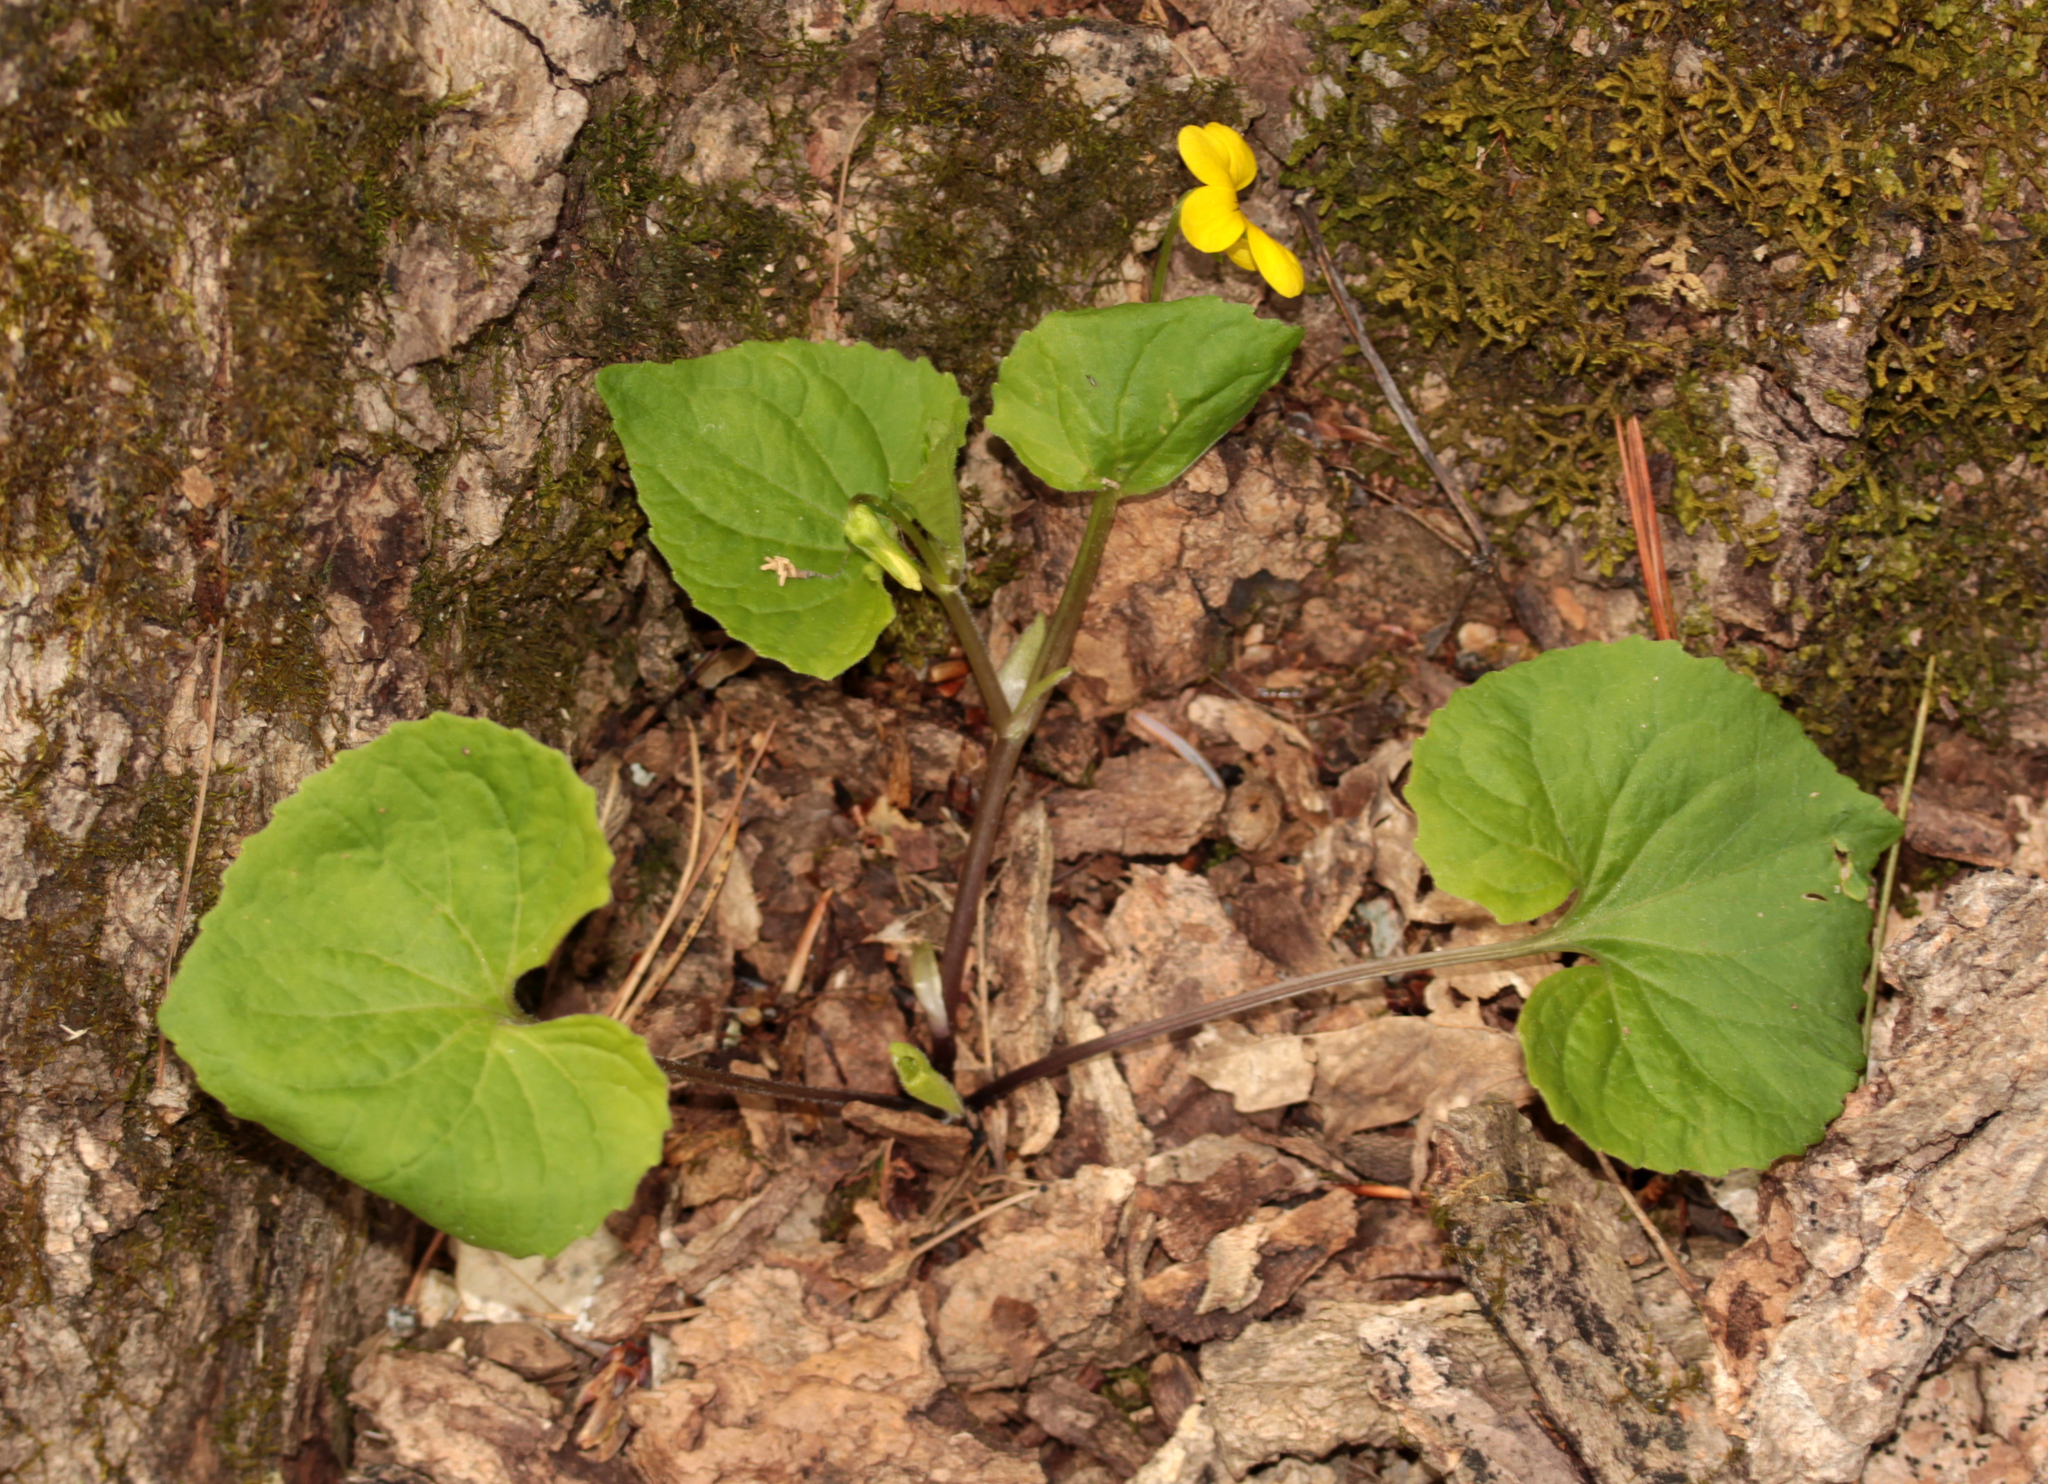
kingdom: Plantae
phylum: Tracheophyta
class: Magnoliopsida
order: Malpighiales
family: Violaceae
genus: Viola
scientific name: Viola eriocarpa
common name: Smooth yellow violet
